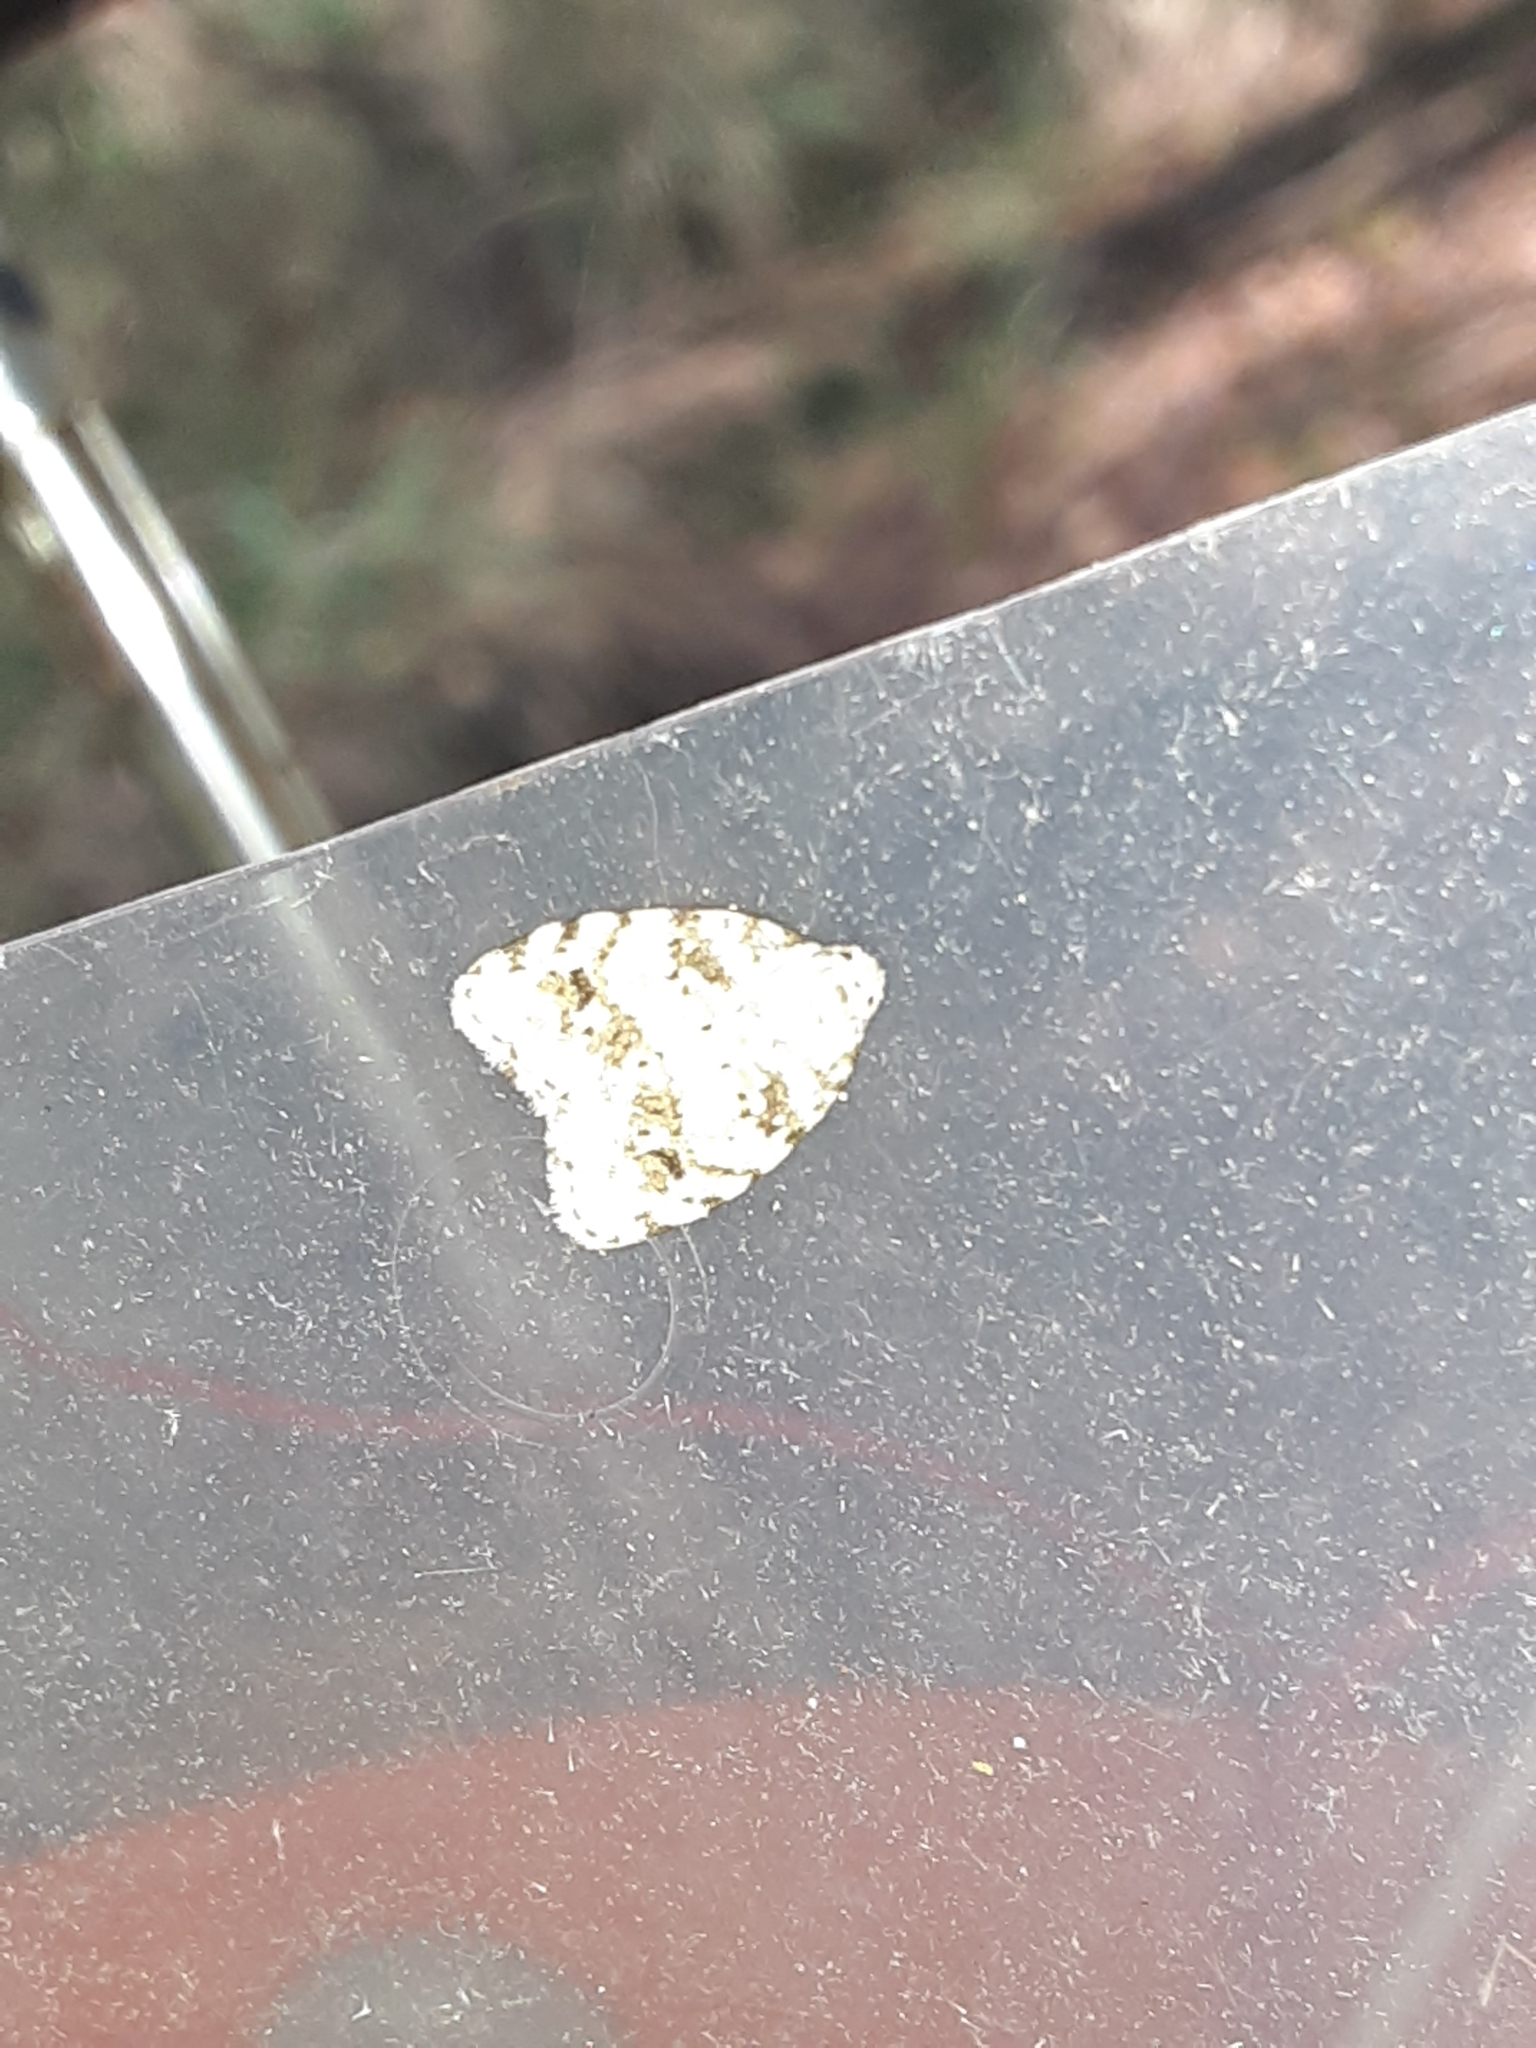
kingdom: Animalia
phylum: Arthropoda
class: Insecta
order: Lepidoptera
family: Erebidae
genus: Clemensia
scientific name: Clemensia ochreata
